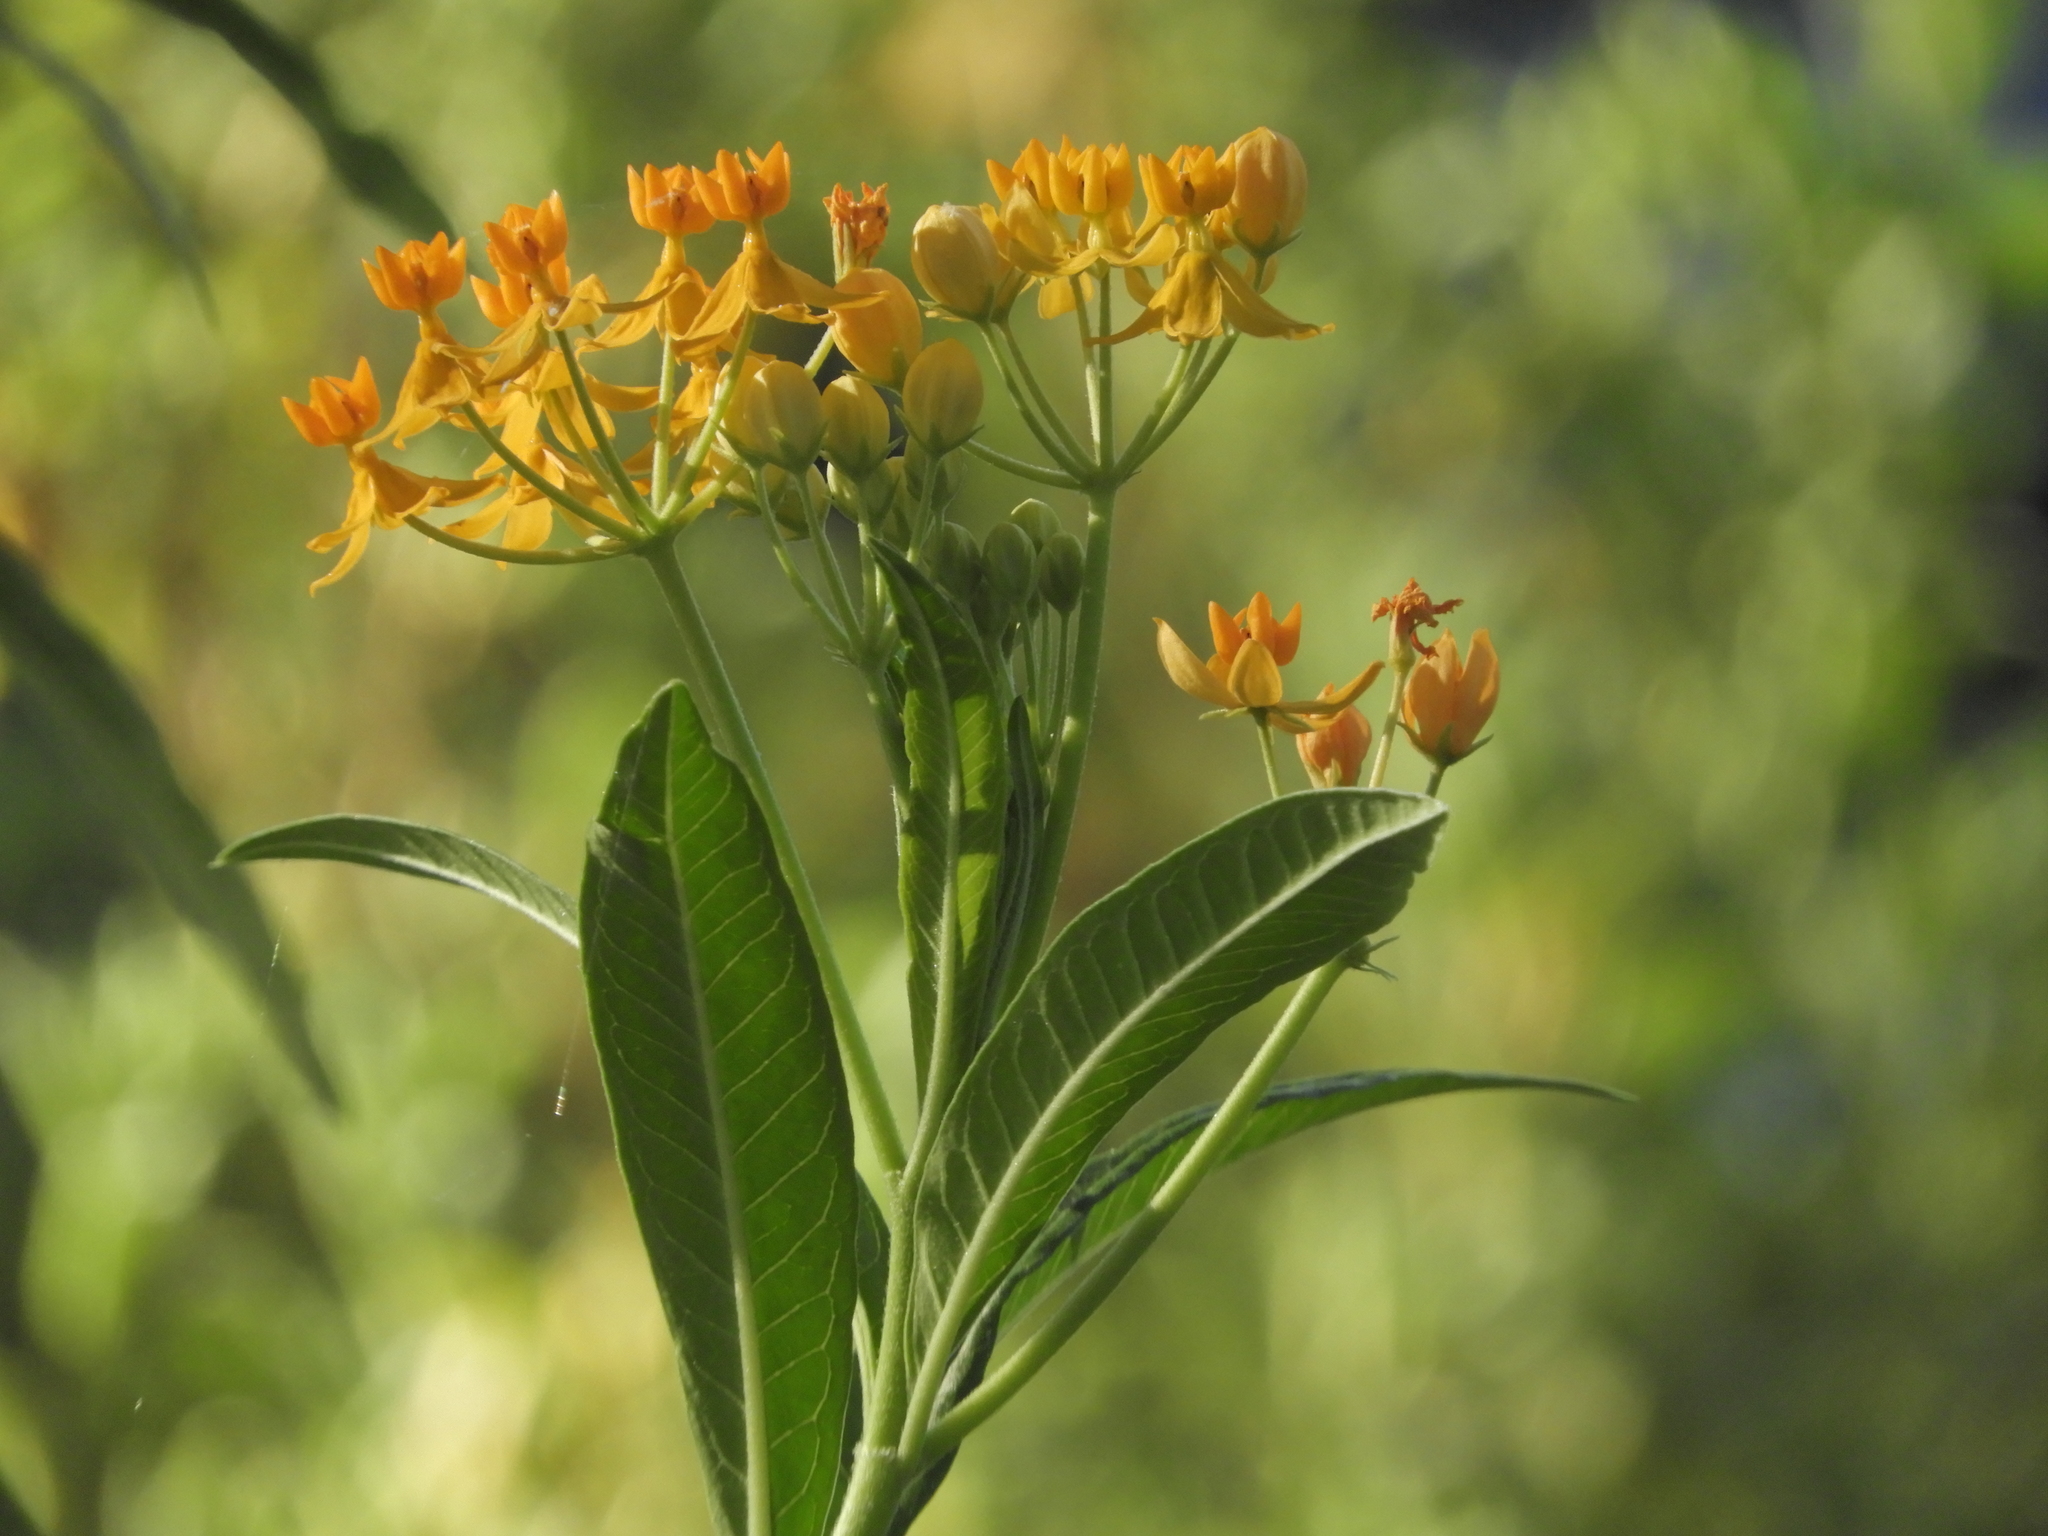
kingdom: Plantae
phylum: Tracheophyta
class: Magnoliopsida
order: Gentianales
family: Apocynaceae
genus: Asclepias
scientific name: Asclepias curassavica
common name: Bloodflower
